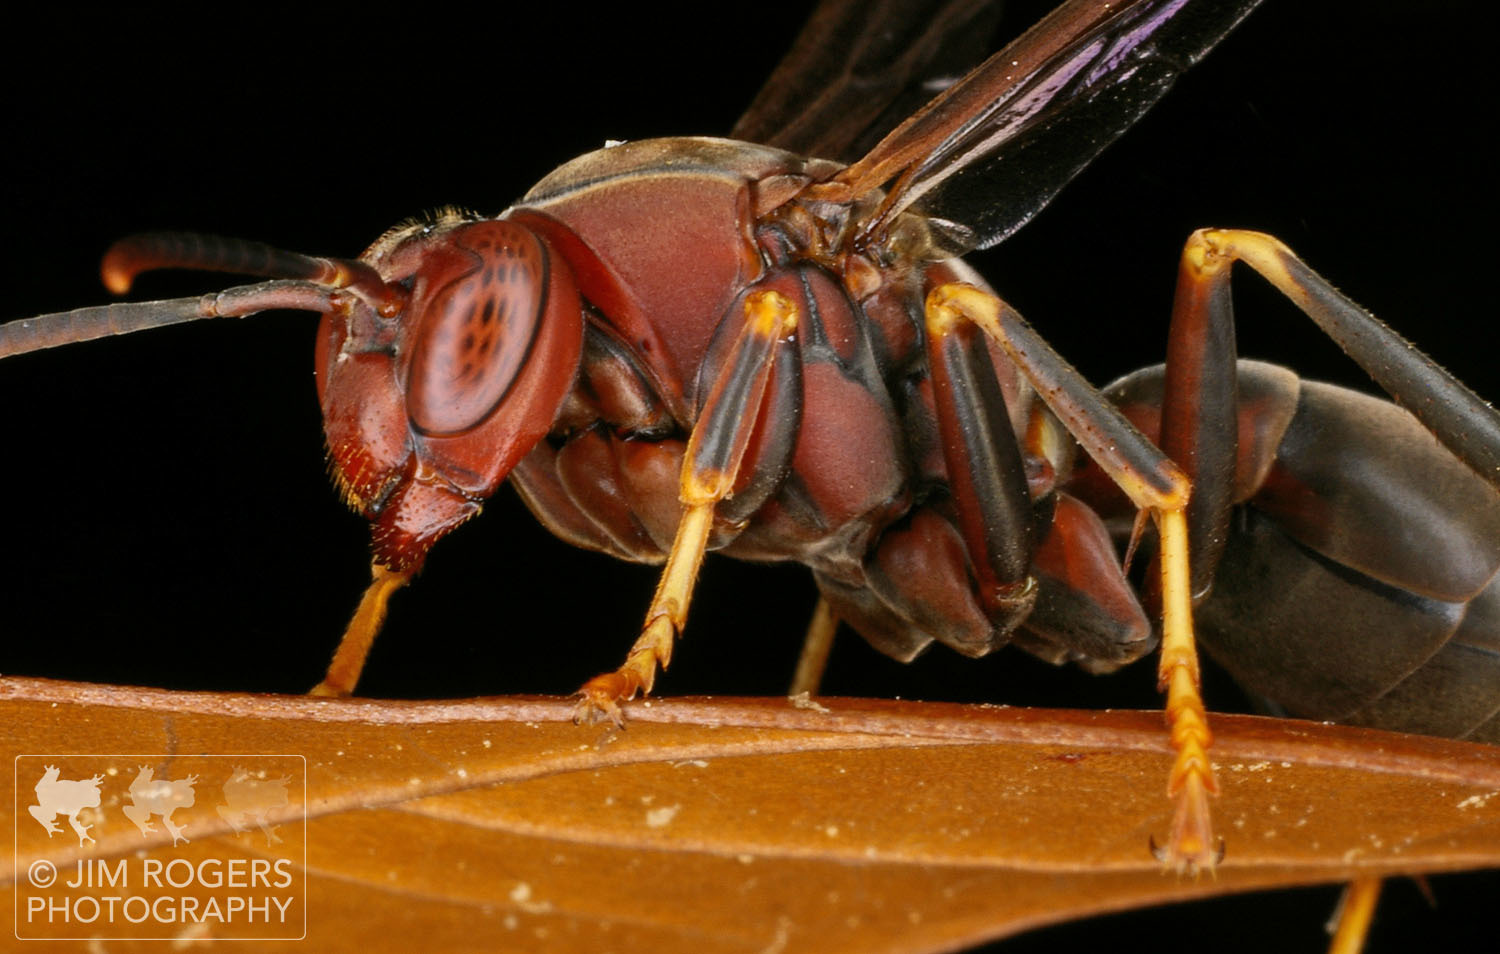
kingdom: Animalia
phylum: Arthropoda
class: Insecta
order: Hymenoptera
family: Eumenidae
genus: Polistes
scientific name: Polistes metricus
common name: Metric paper wasp
